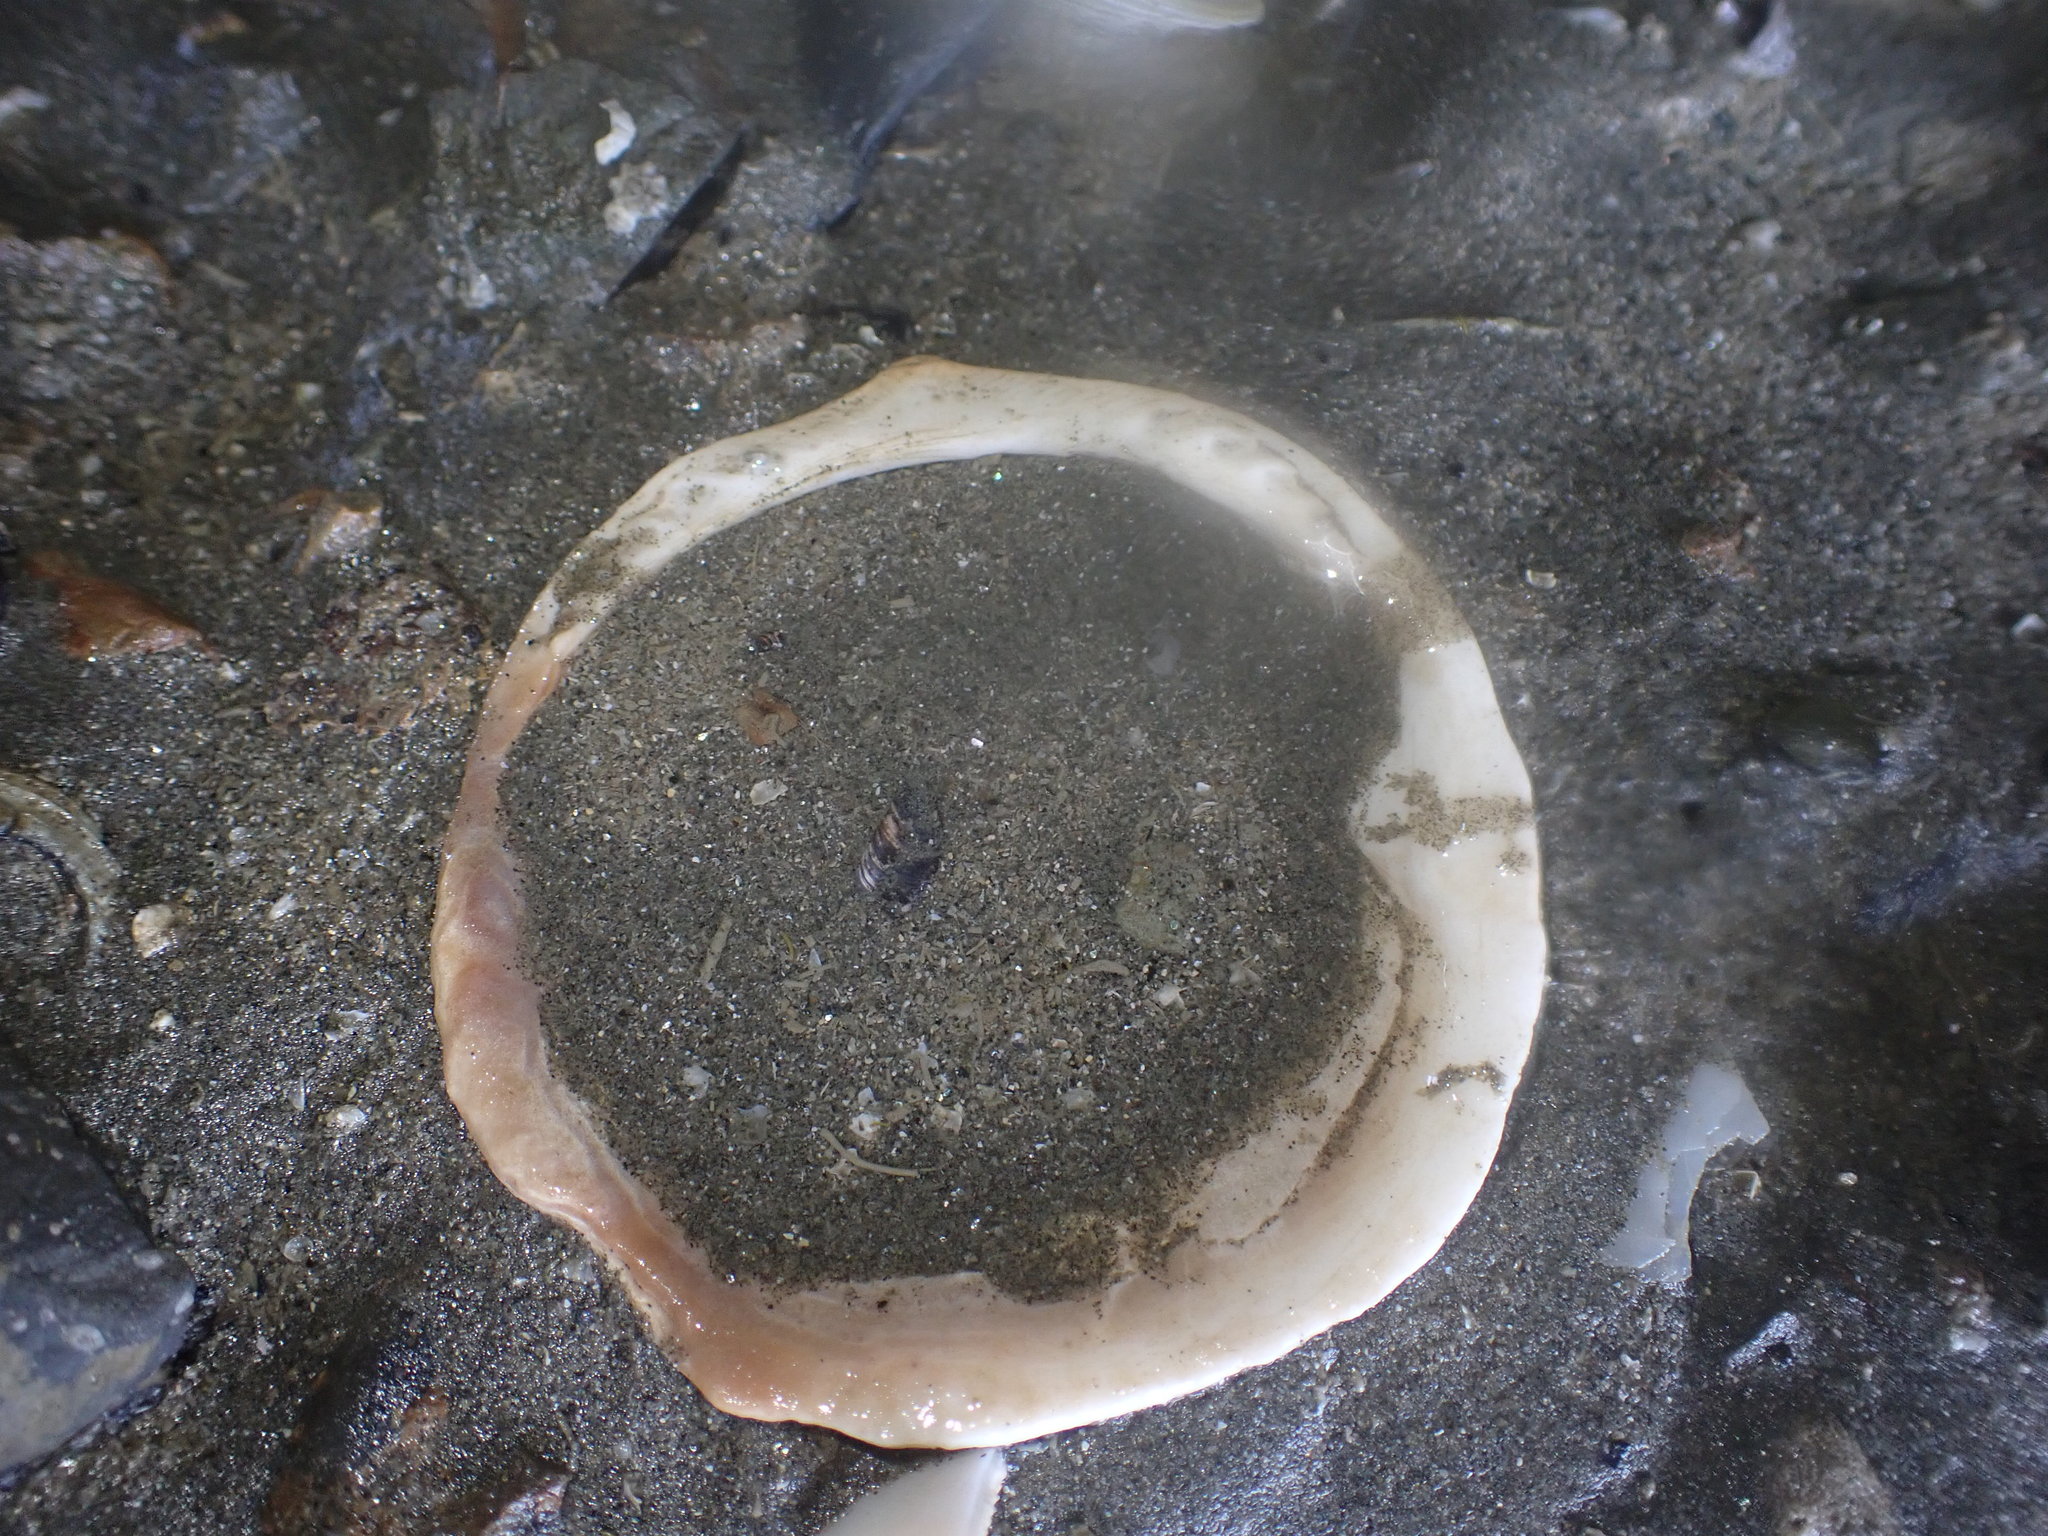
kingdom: Animalia
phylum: Mollusca
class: Bivalvia
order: Arcida
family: Glycymerididae
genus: Tucetona
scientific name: Tucetona laticostata
